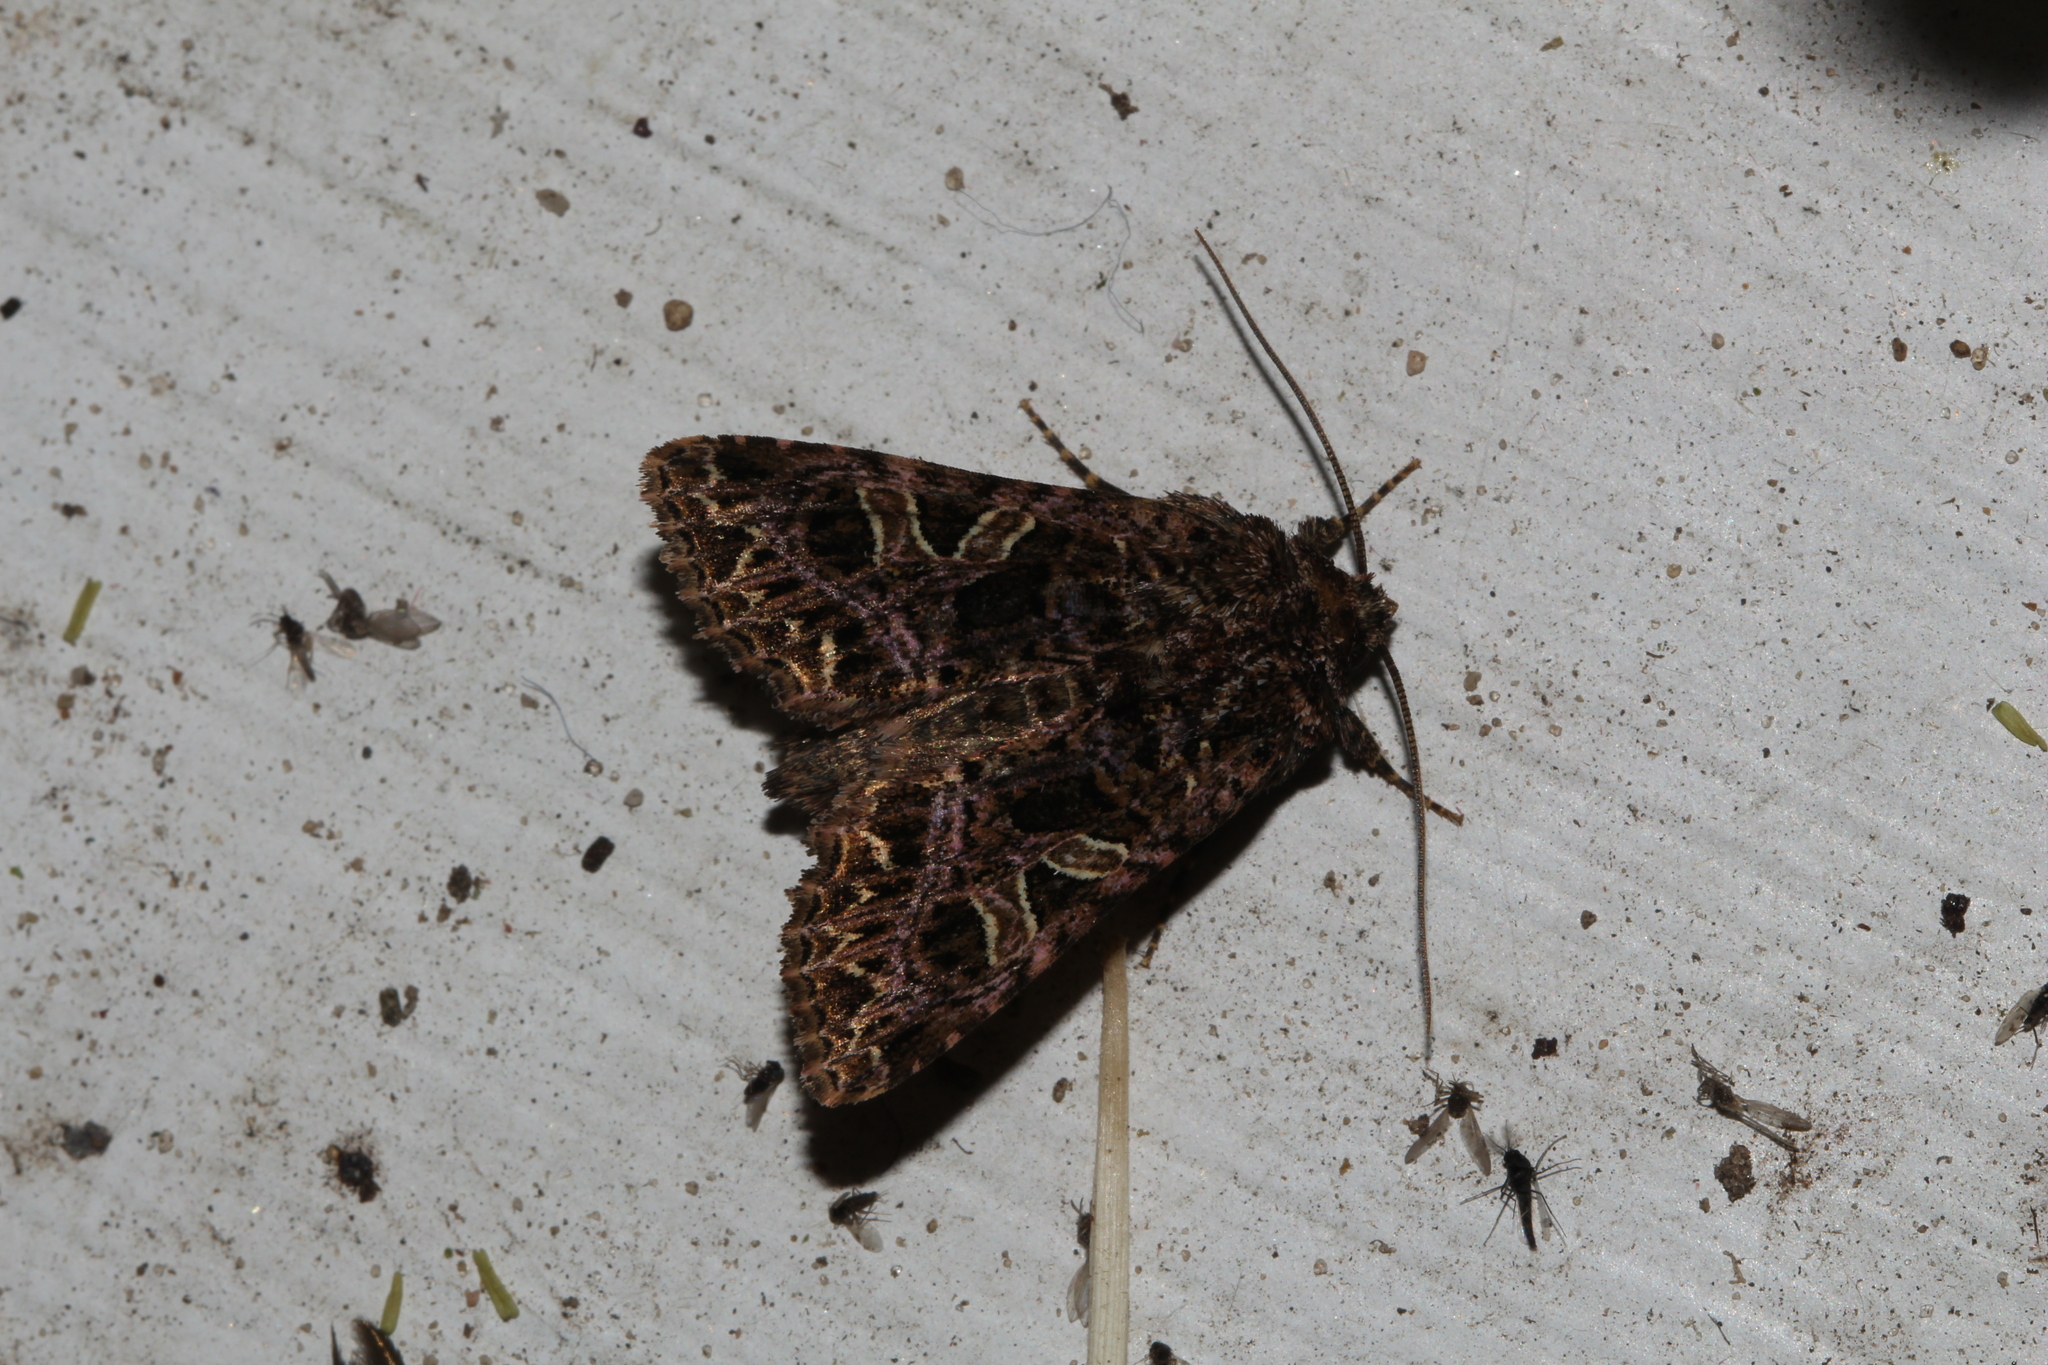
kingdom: Animalia
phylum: Arthropoda
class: Insecta
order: Lepidoptera
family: Noctuidae
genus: Sideridis
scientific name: Sideridis rivularis
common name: Campion
